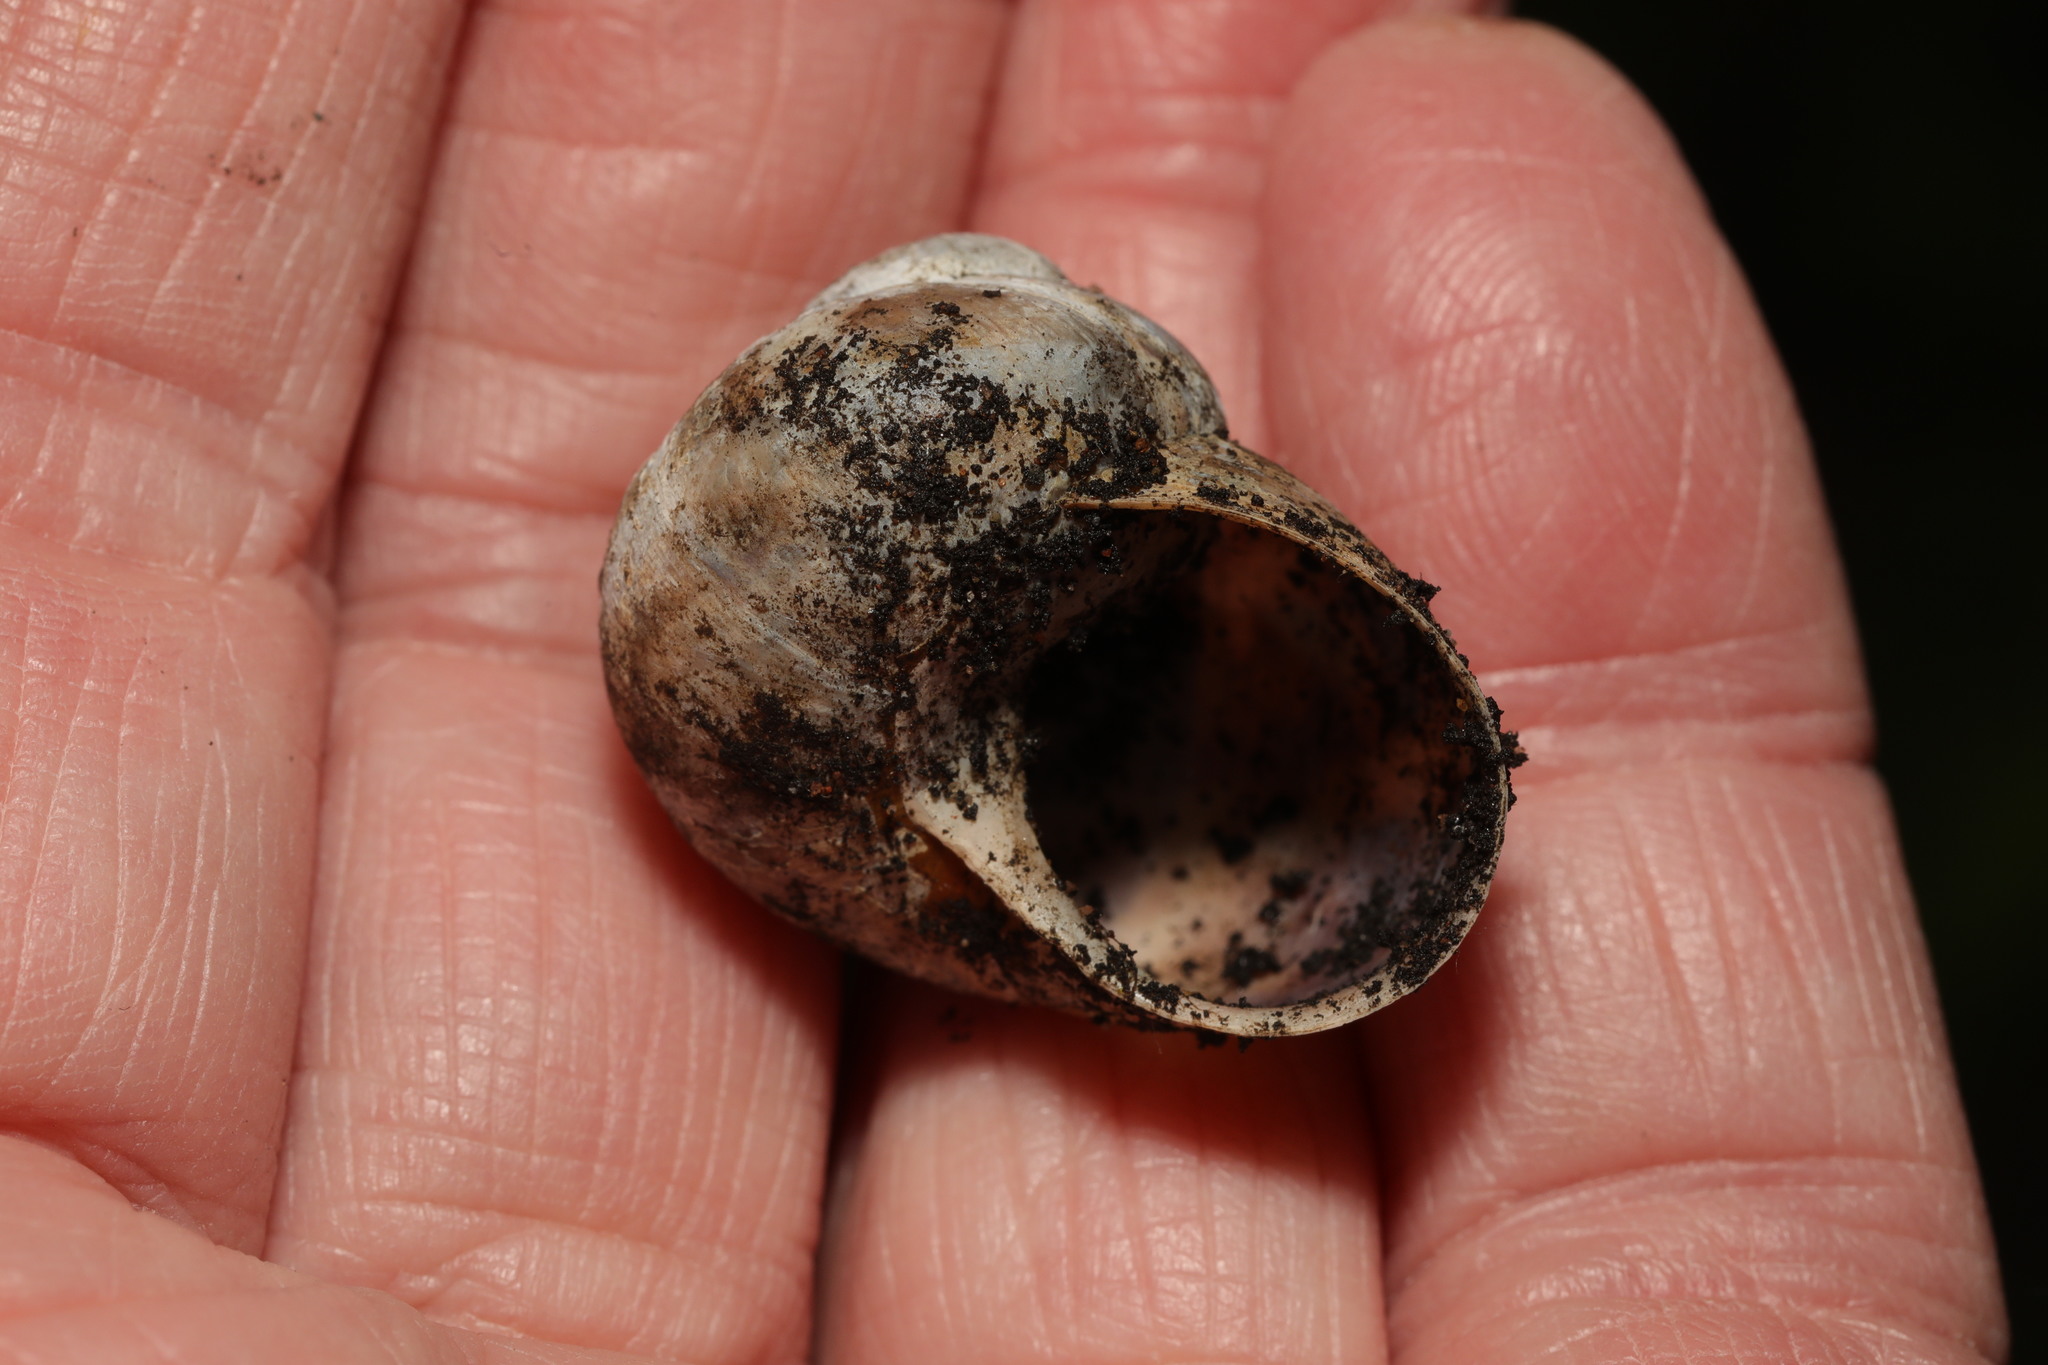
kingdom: Animalia
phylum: Mollusca
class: Gastropoda
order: Stylommatophora
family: Helicidae
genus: Cornu
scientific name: Cornu aspersum
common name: Brown garden snail
